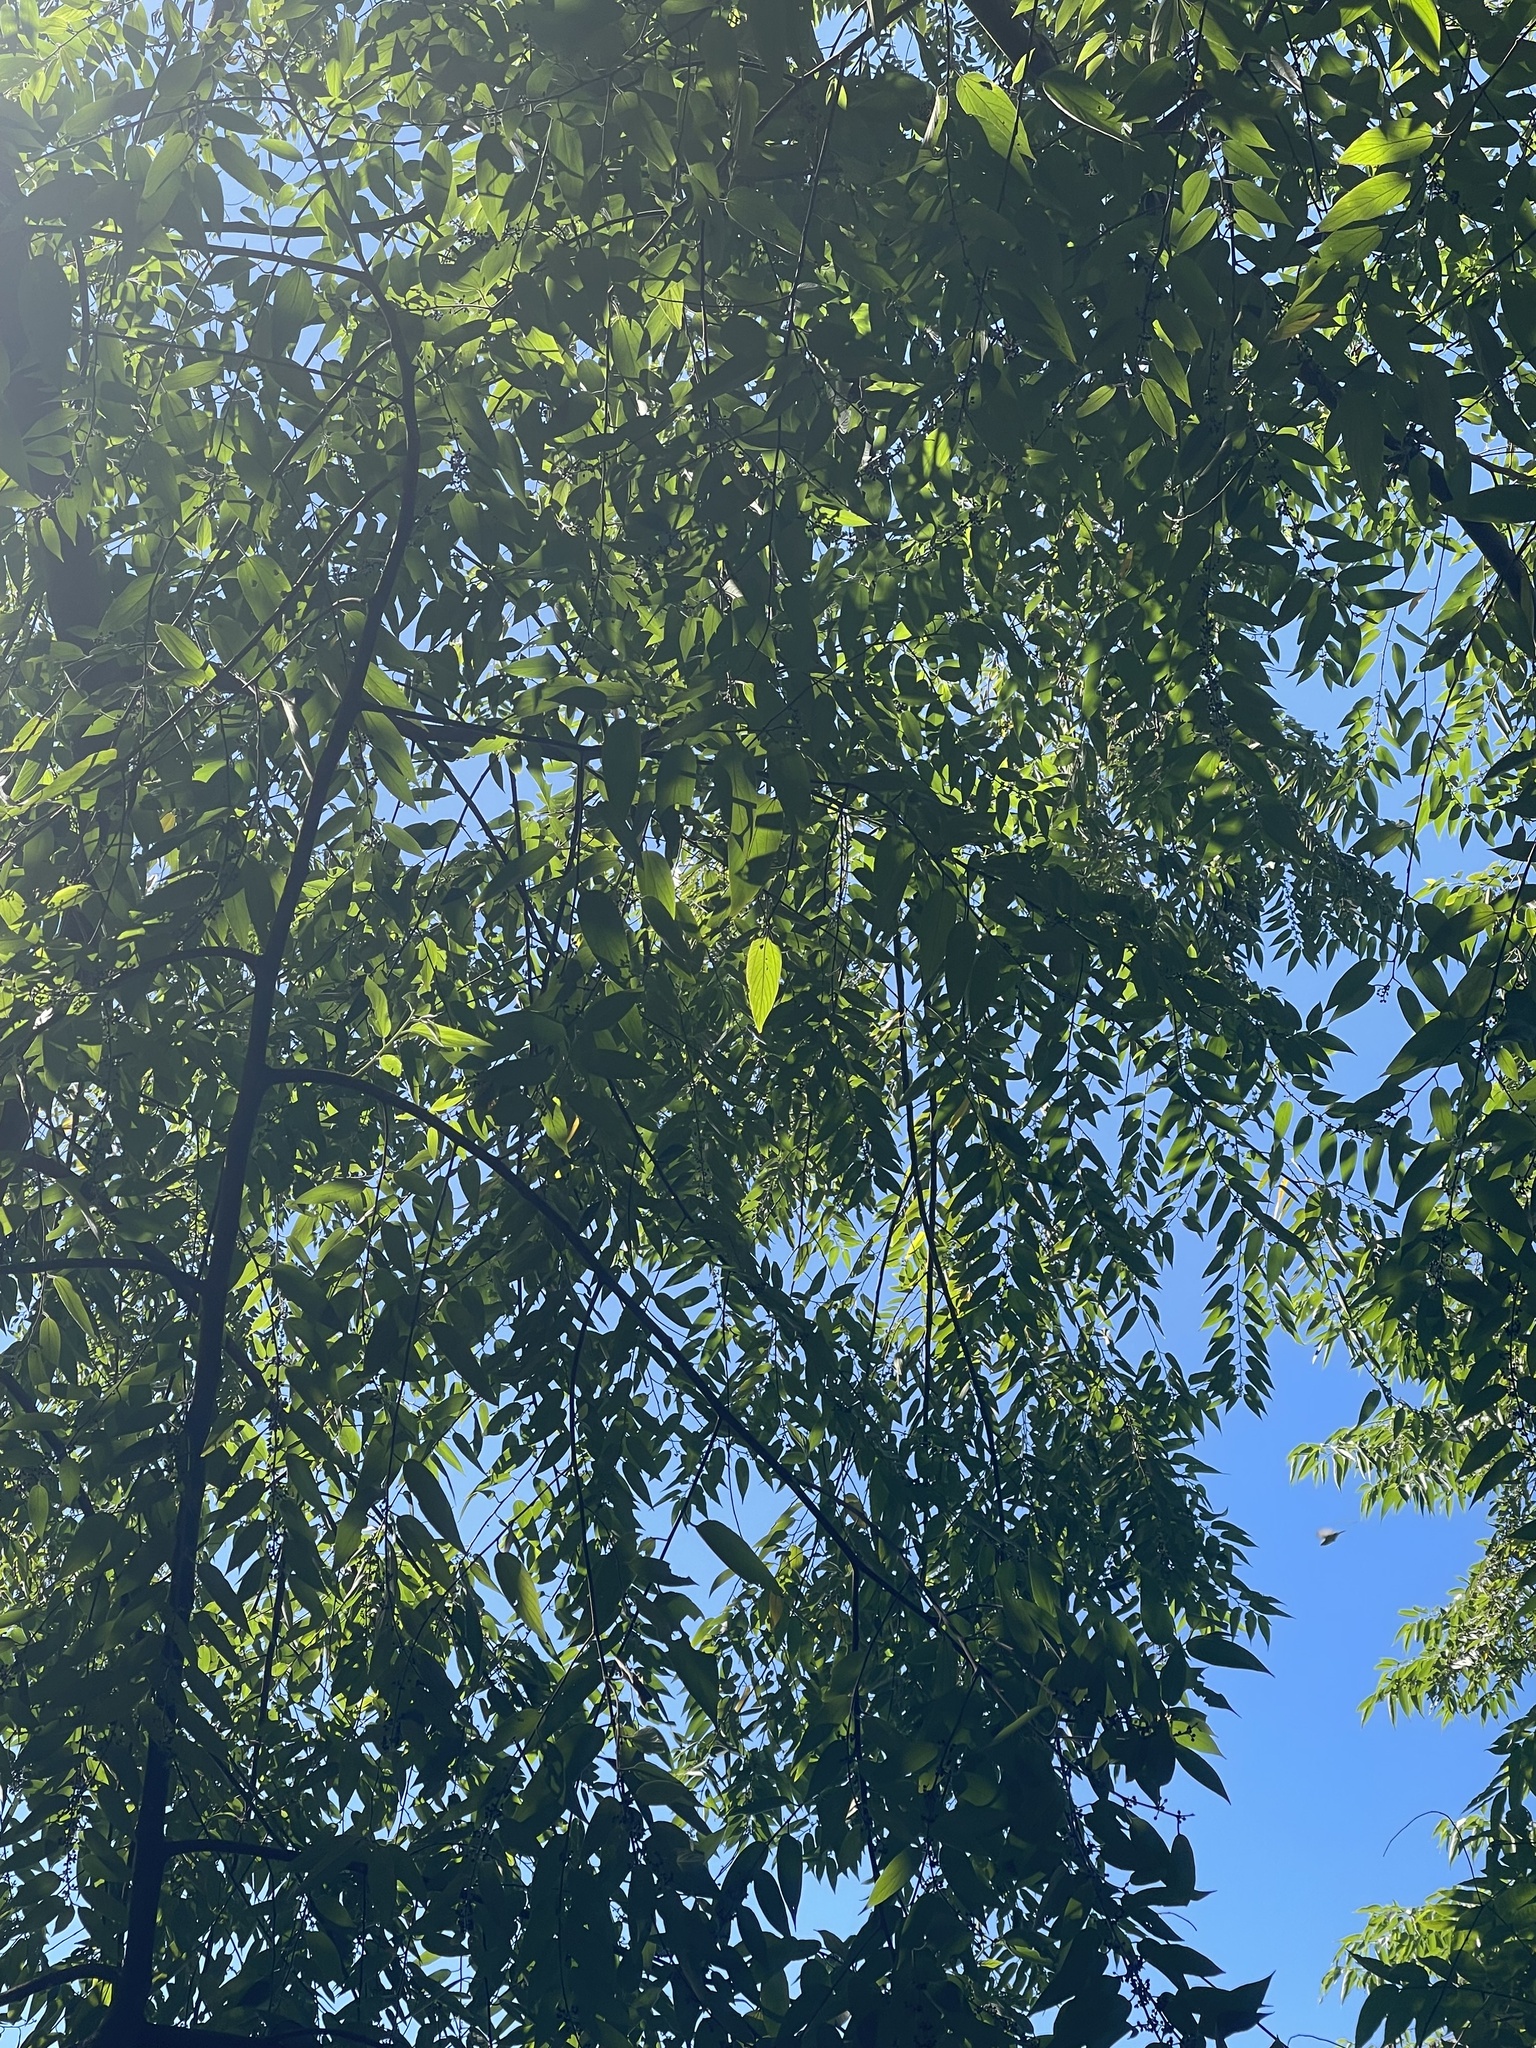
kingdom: Plantae
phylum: Tracheophyta
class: Magnoliopsida
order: Rosales
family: Cannabaceae
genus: Trema
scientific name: Trema orientale
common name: Indian charcoal tree
